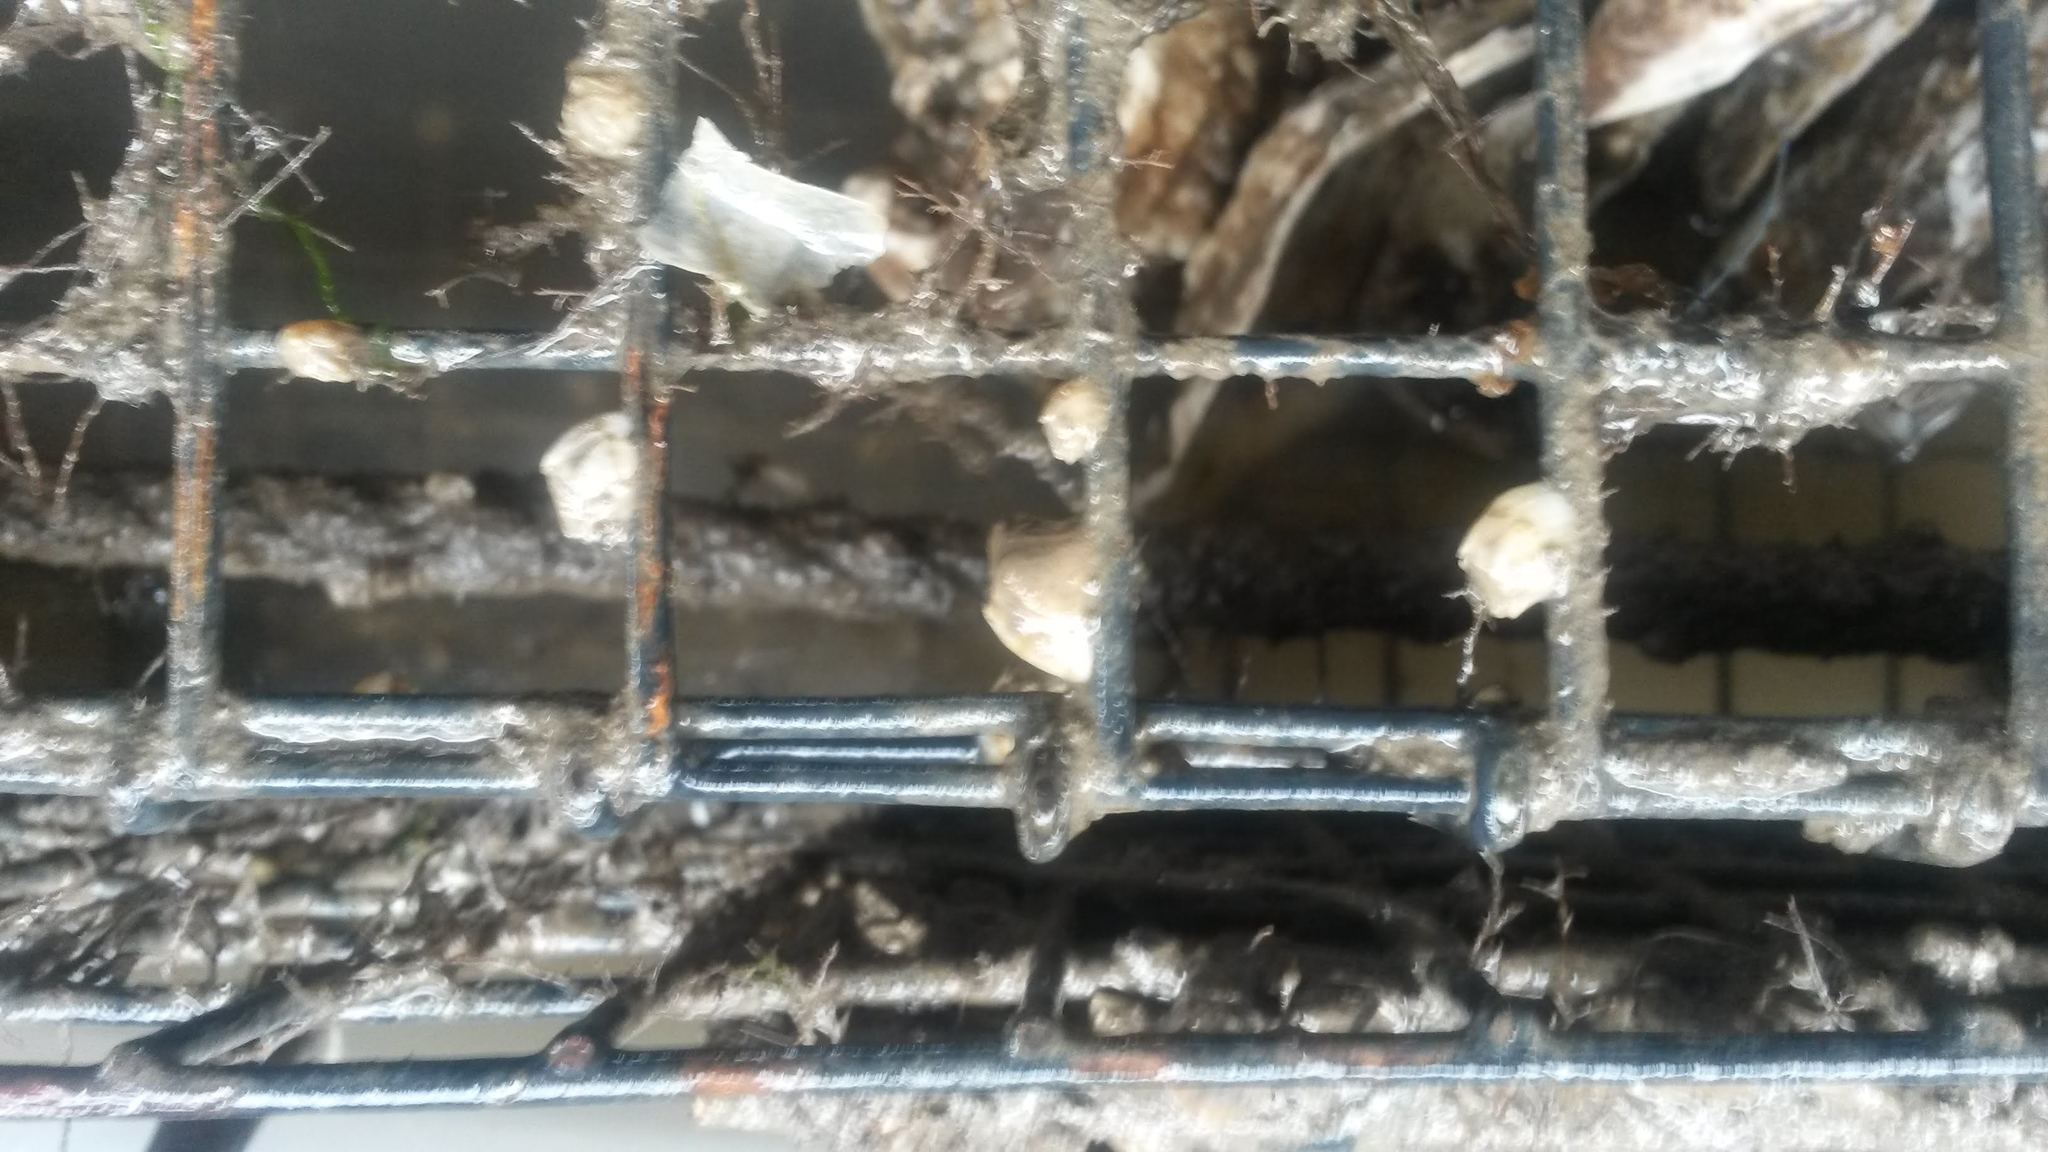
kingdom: Animalia
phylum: Arthropoda
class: Maxillopoda
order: Sessilia
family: Balanidae
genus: Amphibalanus
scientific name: Amphibalanus improvisus
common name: Bay barnacle
